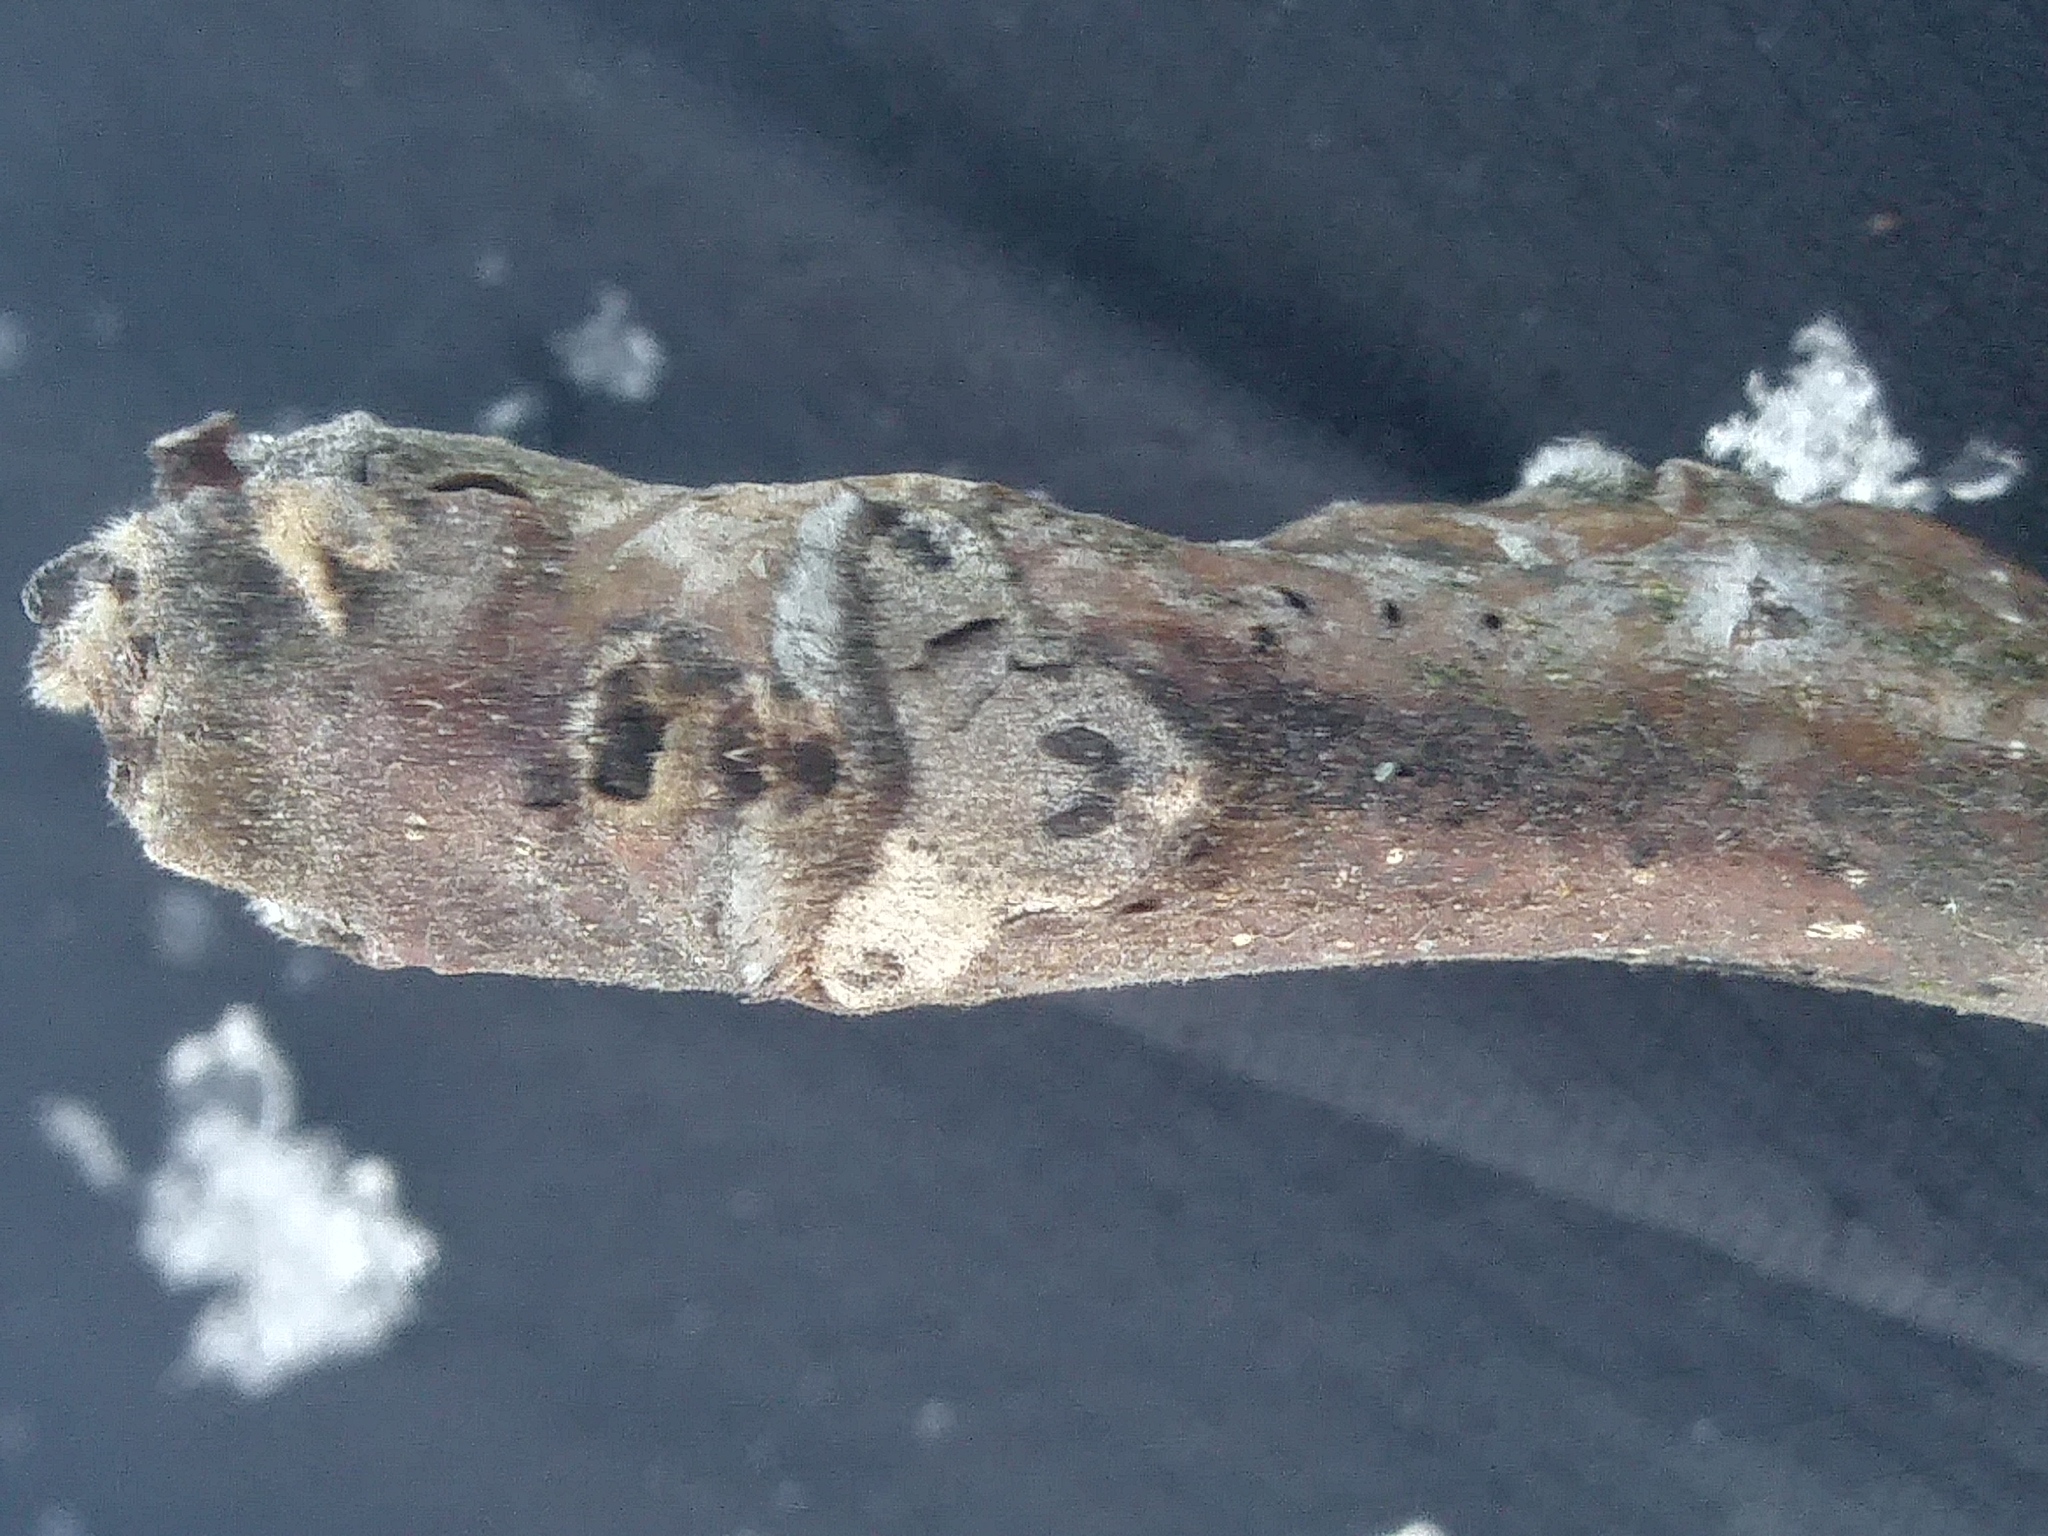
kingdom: Plantae
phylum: Tracheophyta
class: Magnoliopsida
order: Fagales
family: Juglandaceae
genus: Juglans
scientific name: Juglans cinerea
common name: Butternut
